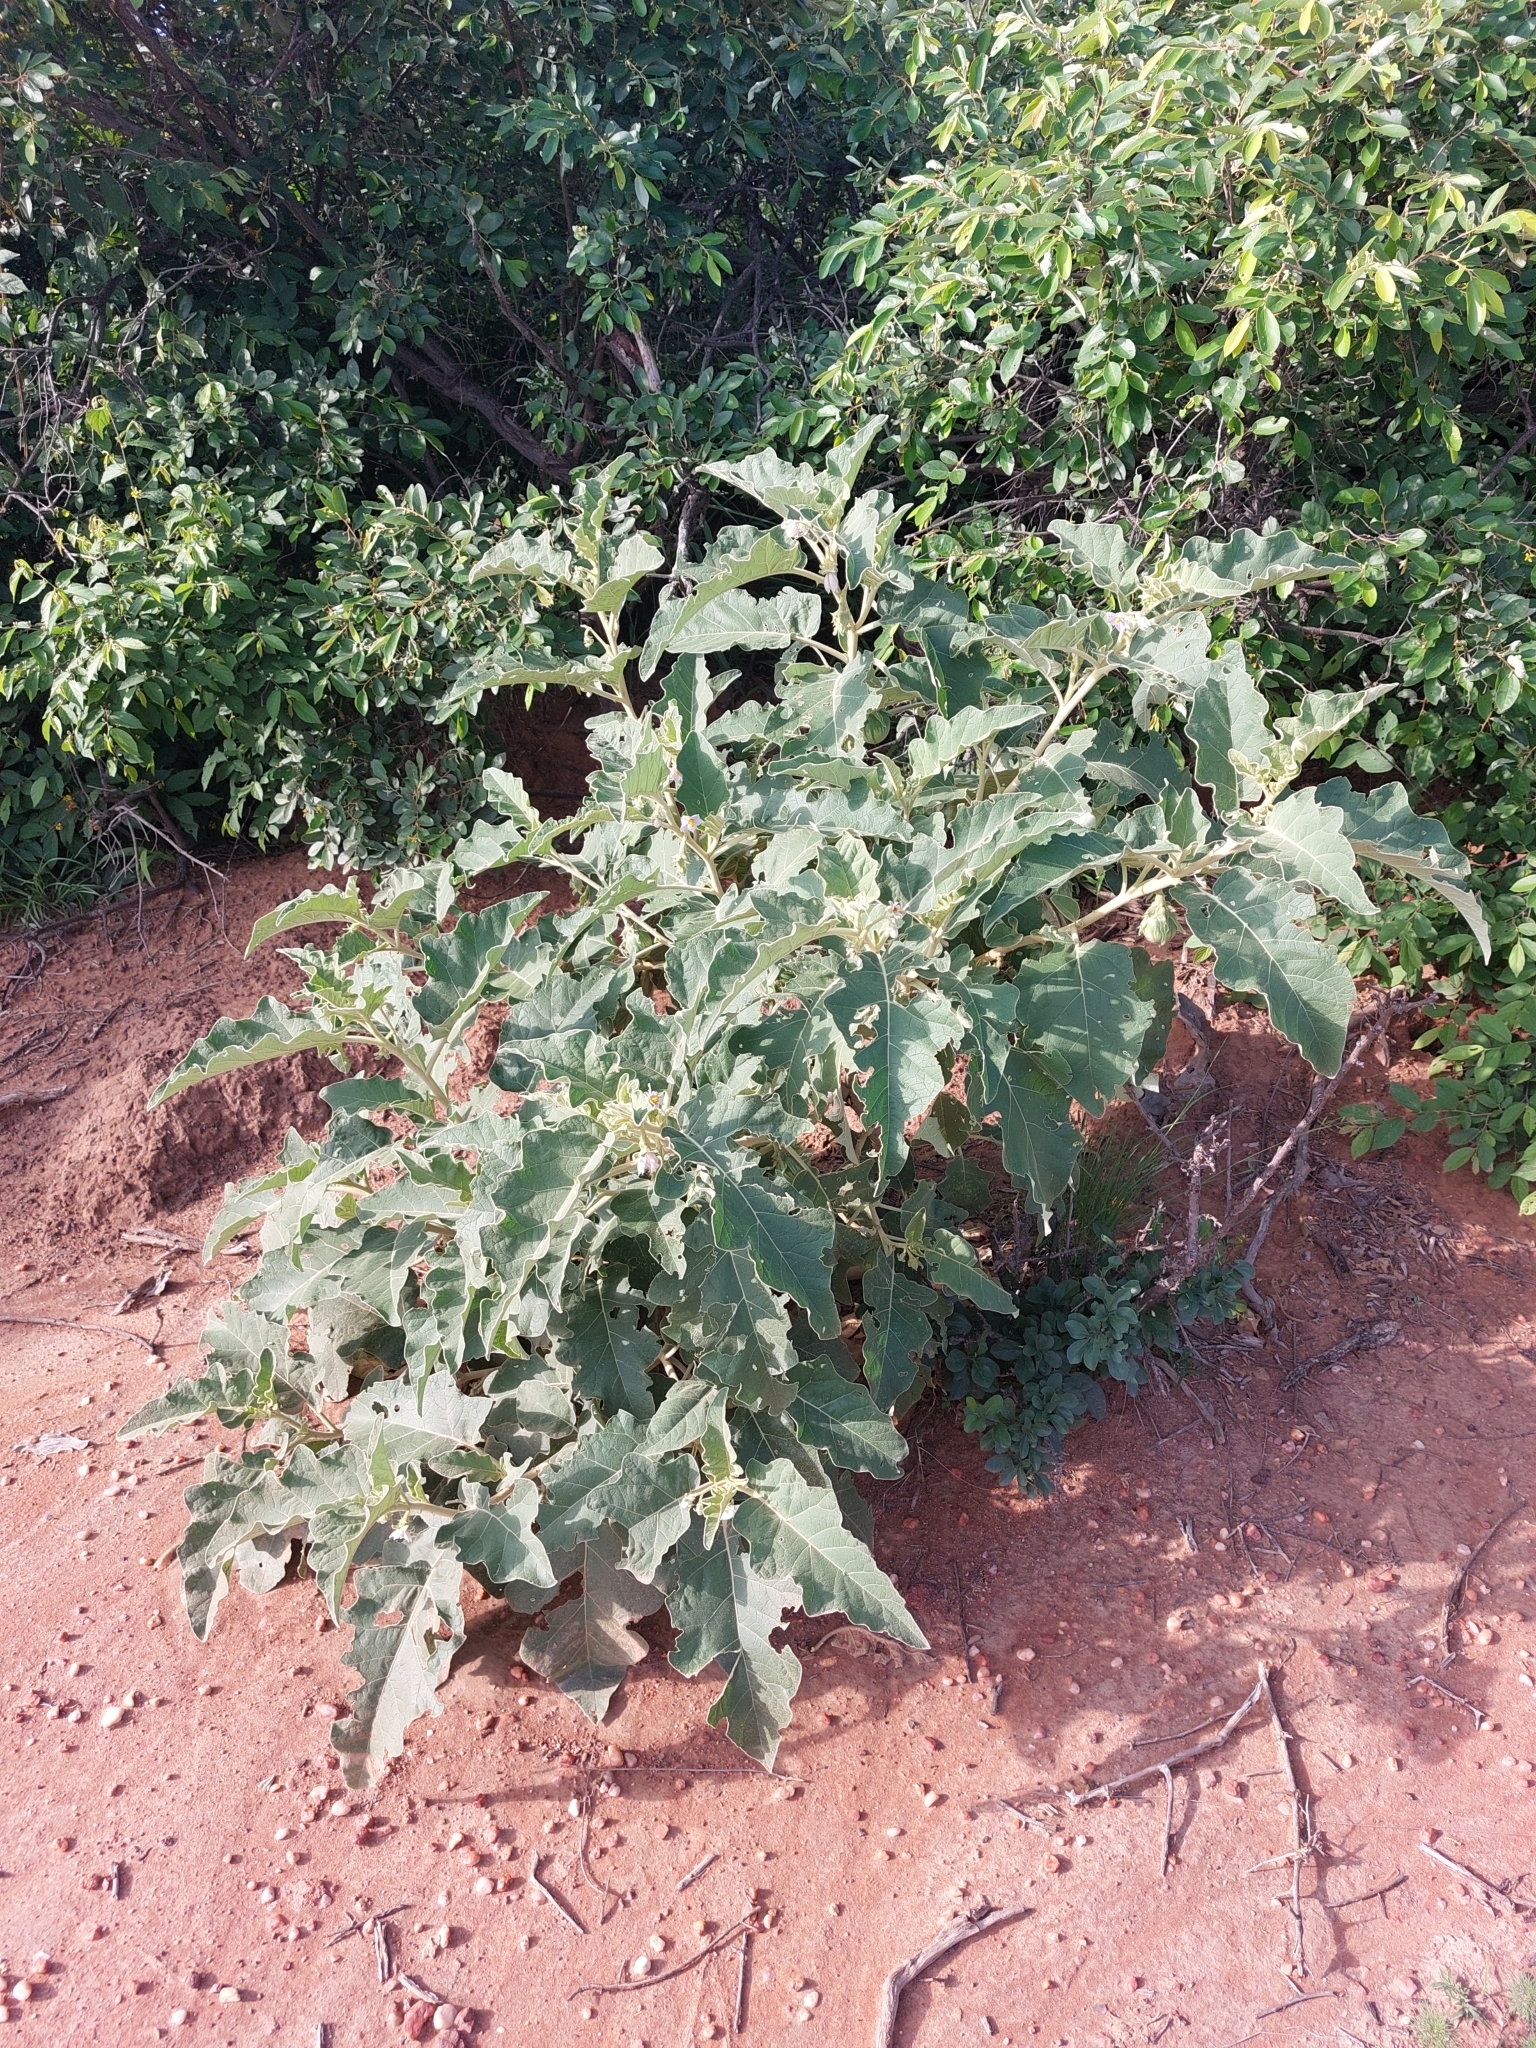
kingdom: Plantae
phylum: Tracheophyta
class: Magnoliopsida
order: Solanales
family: Solanaceae
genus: Solanum
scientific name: Solanum lichtensteinii
